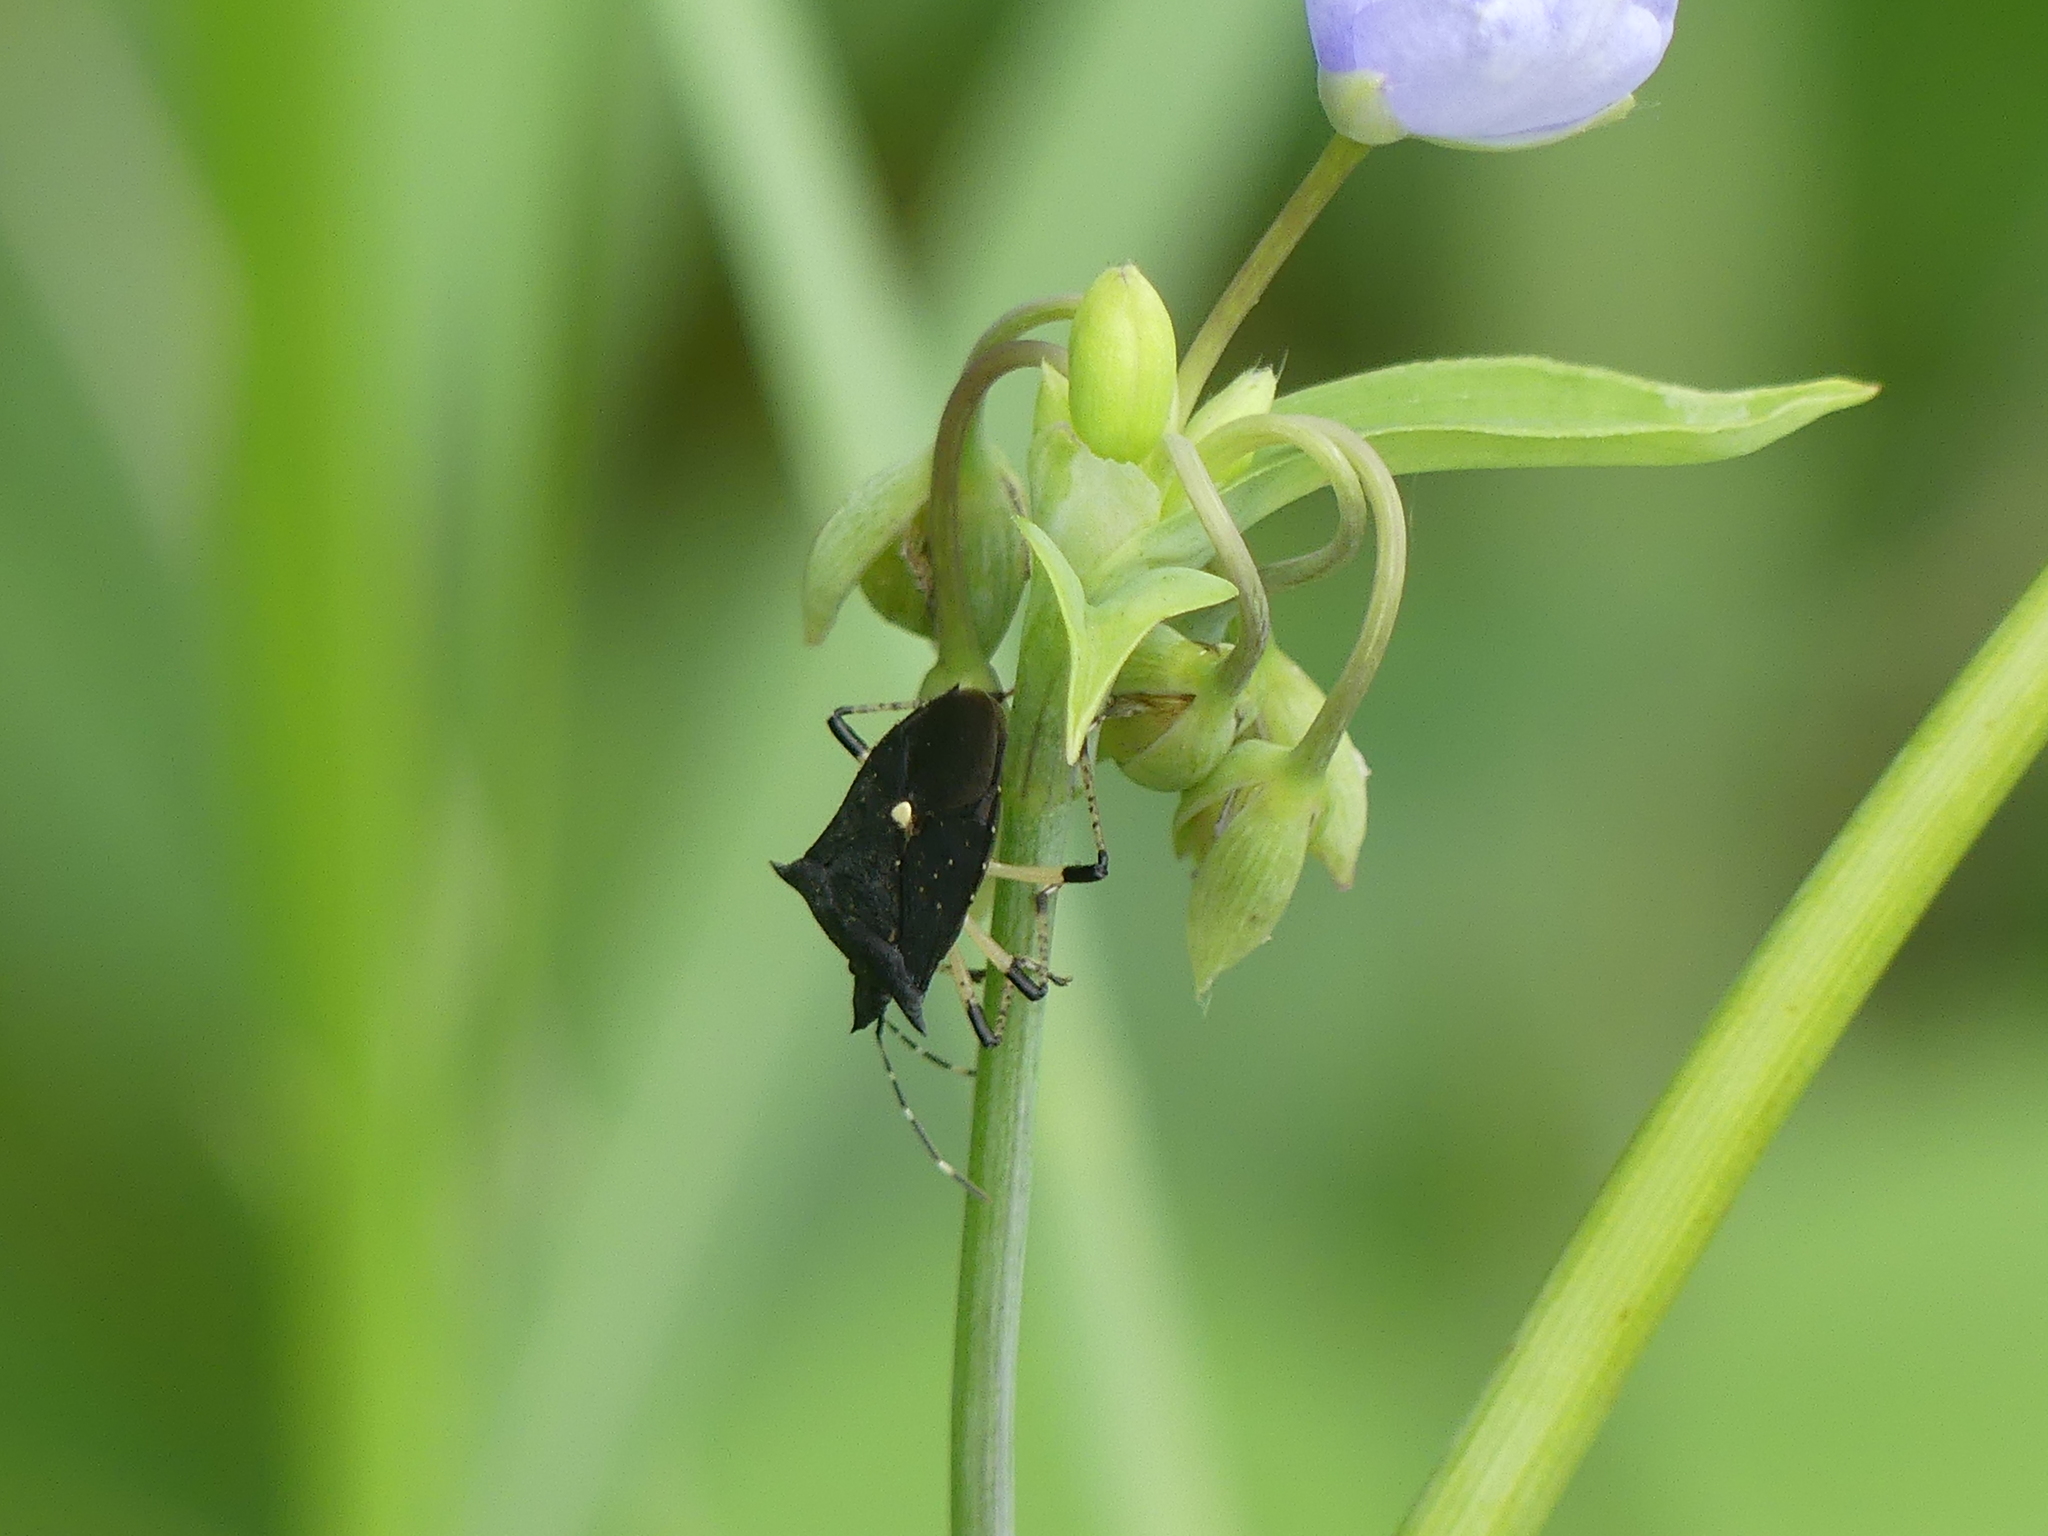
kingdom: Animalia
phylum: Arthropoda
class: Insecta
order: Hemiptera
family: Pentatomidae
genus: Proxys
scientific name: Proxys punctulatus
